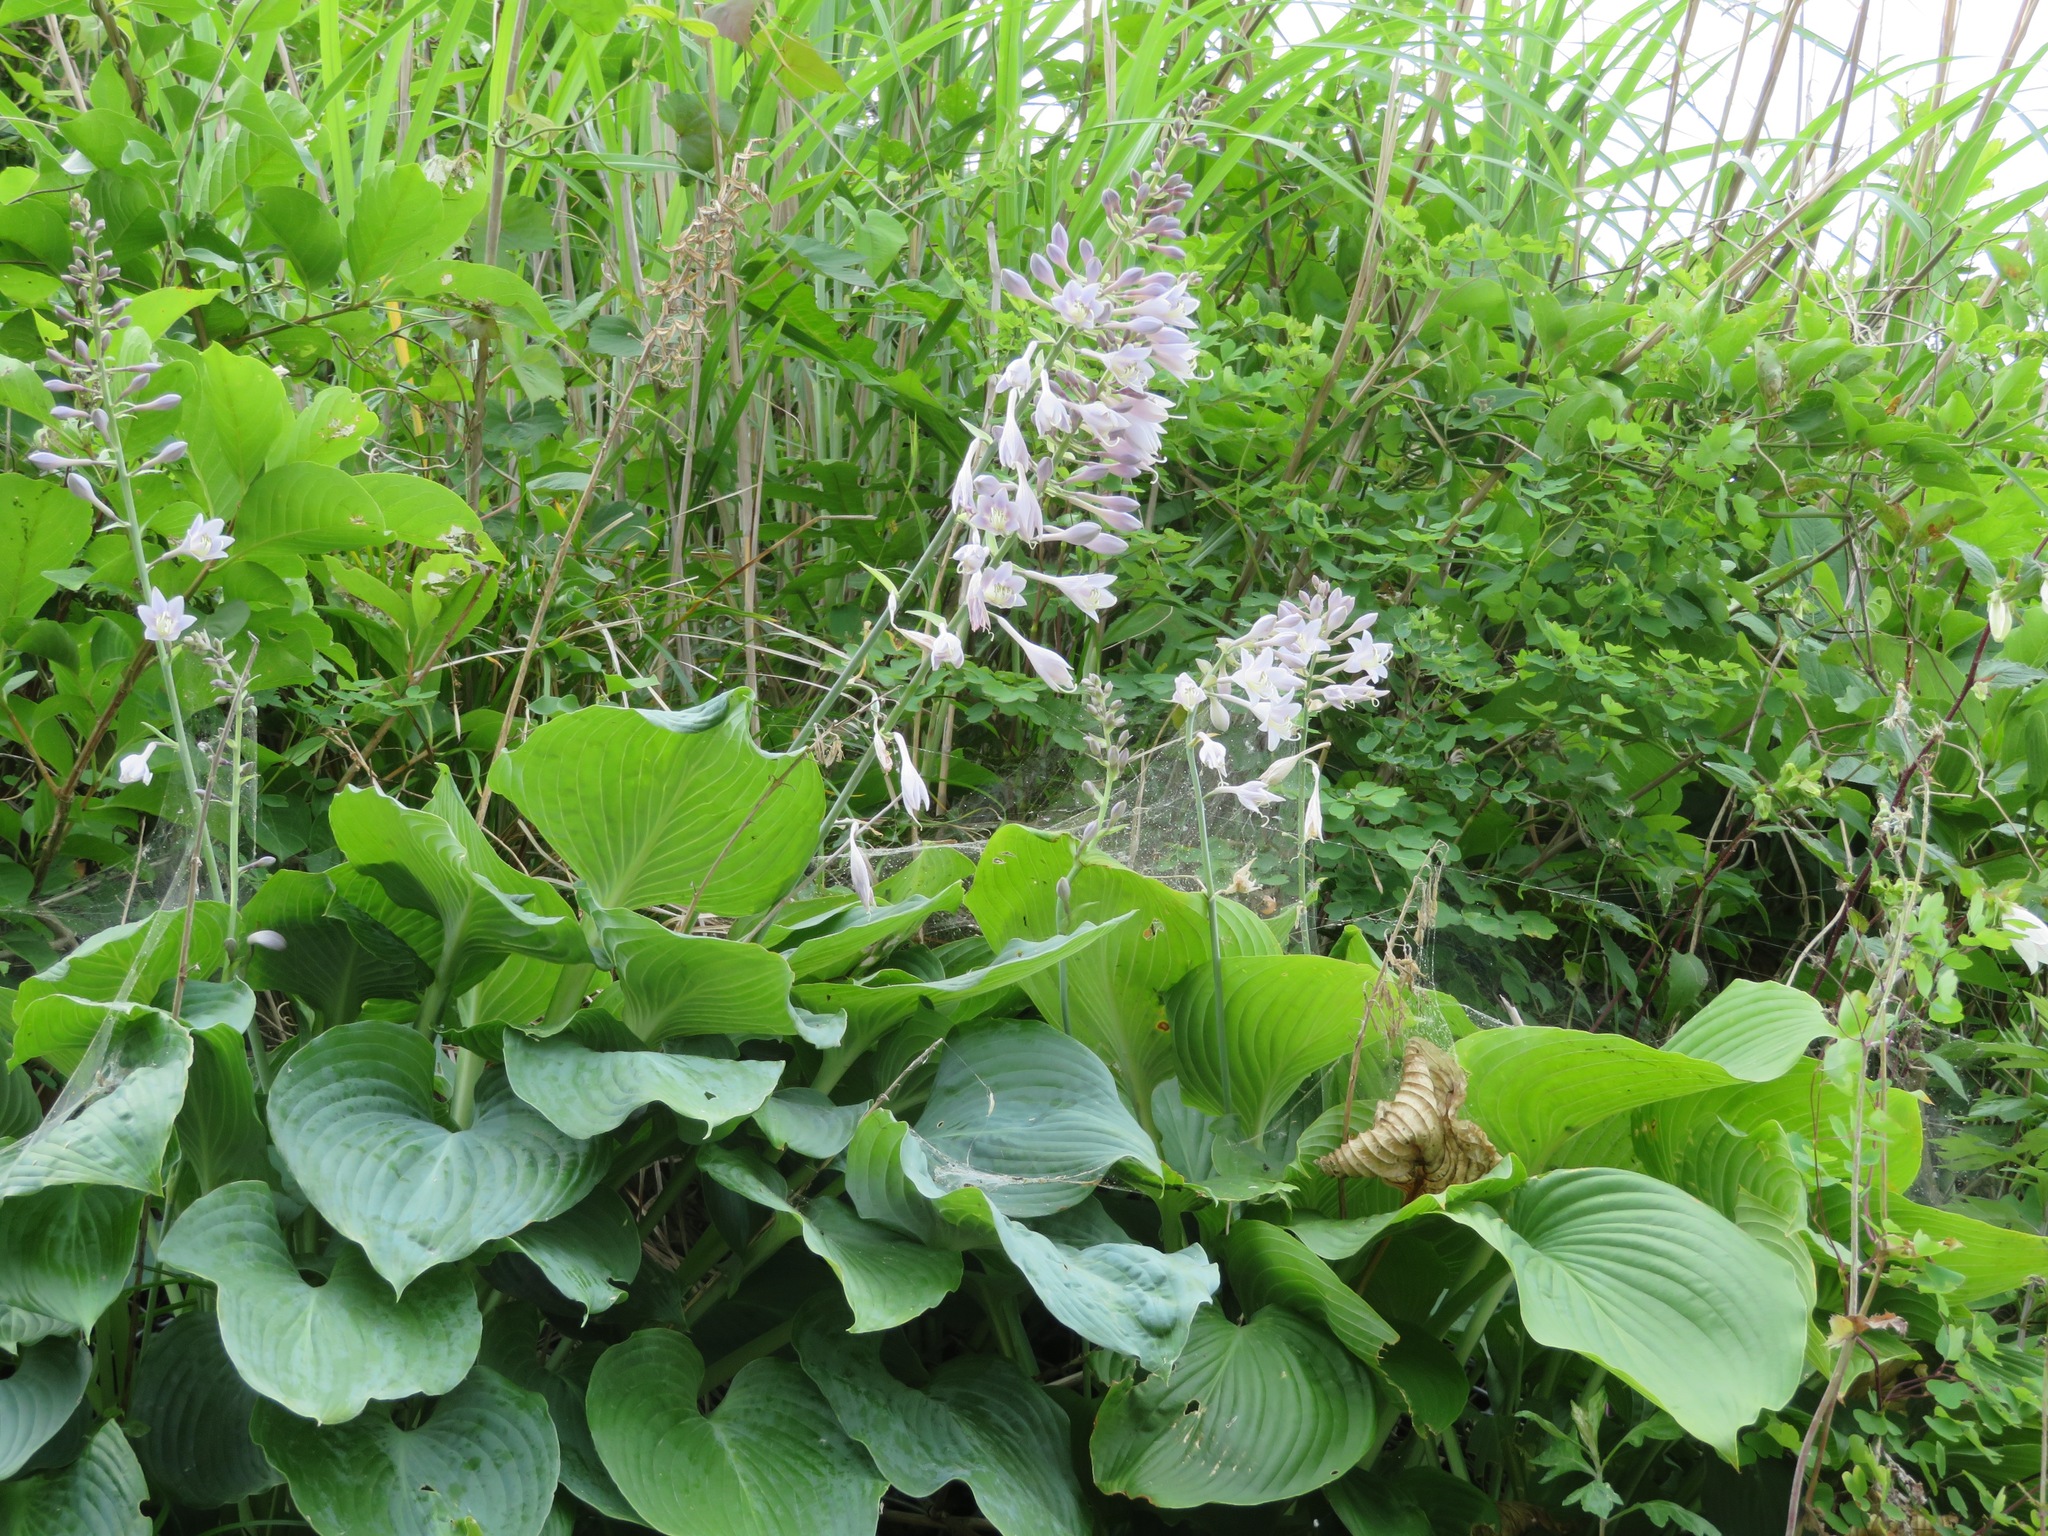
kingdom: Plantae
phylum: Tracheophyta
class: Liliopsida
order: Asparagales
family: Asparagaceae
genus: Hosta
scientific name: Hosta sieboldiana
